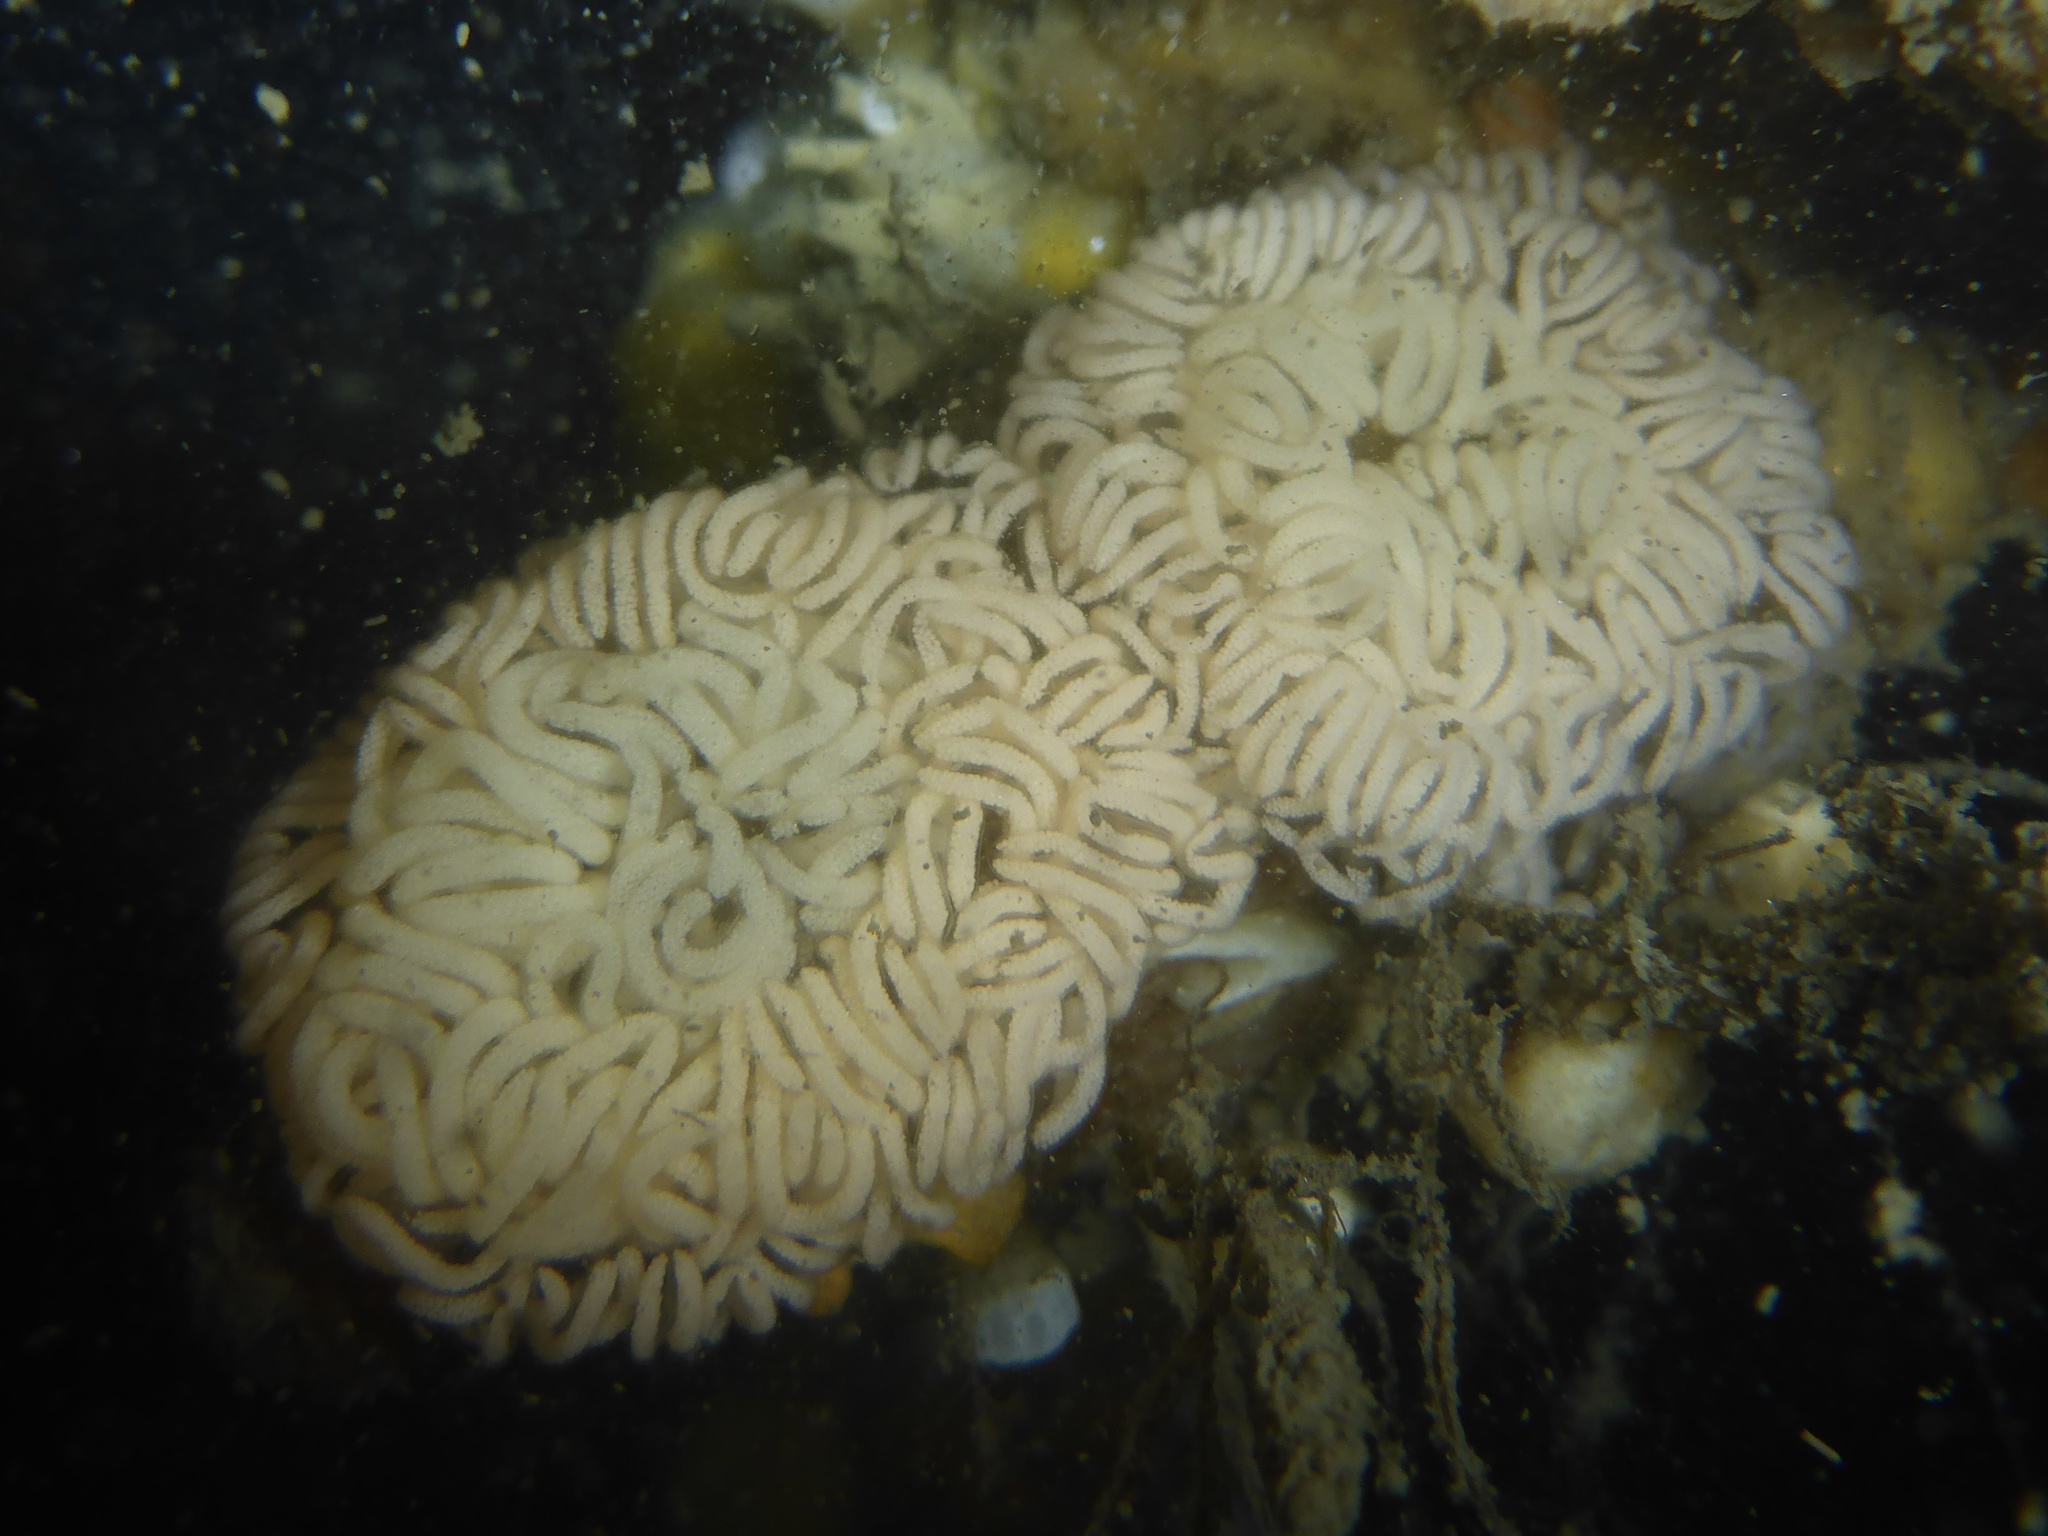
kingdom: Animalia
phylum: Mollusca
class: Gastropoda
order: Nudibranchia
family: Myrrhinidae
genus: Hermissenda
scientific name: Hermissenda opalescens
